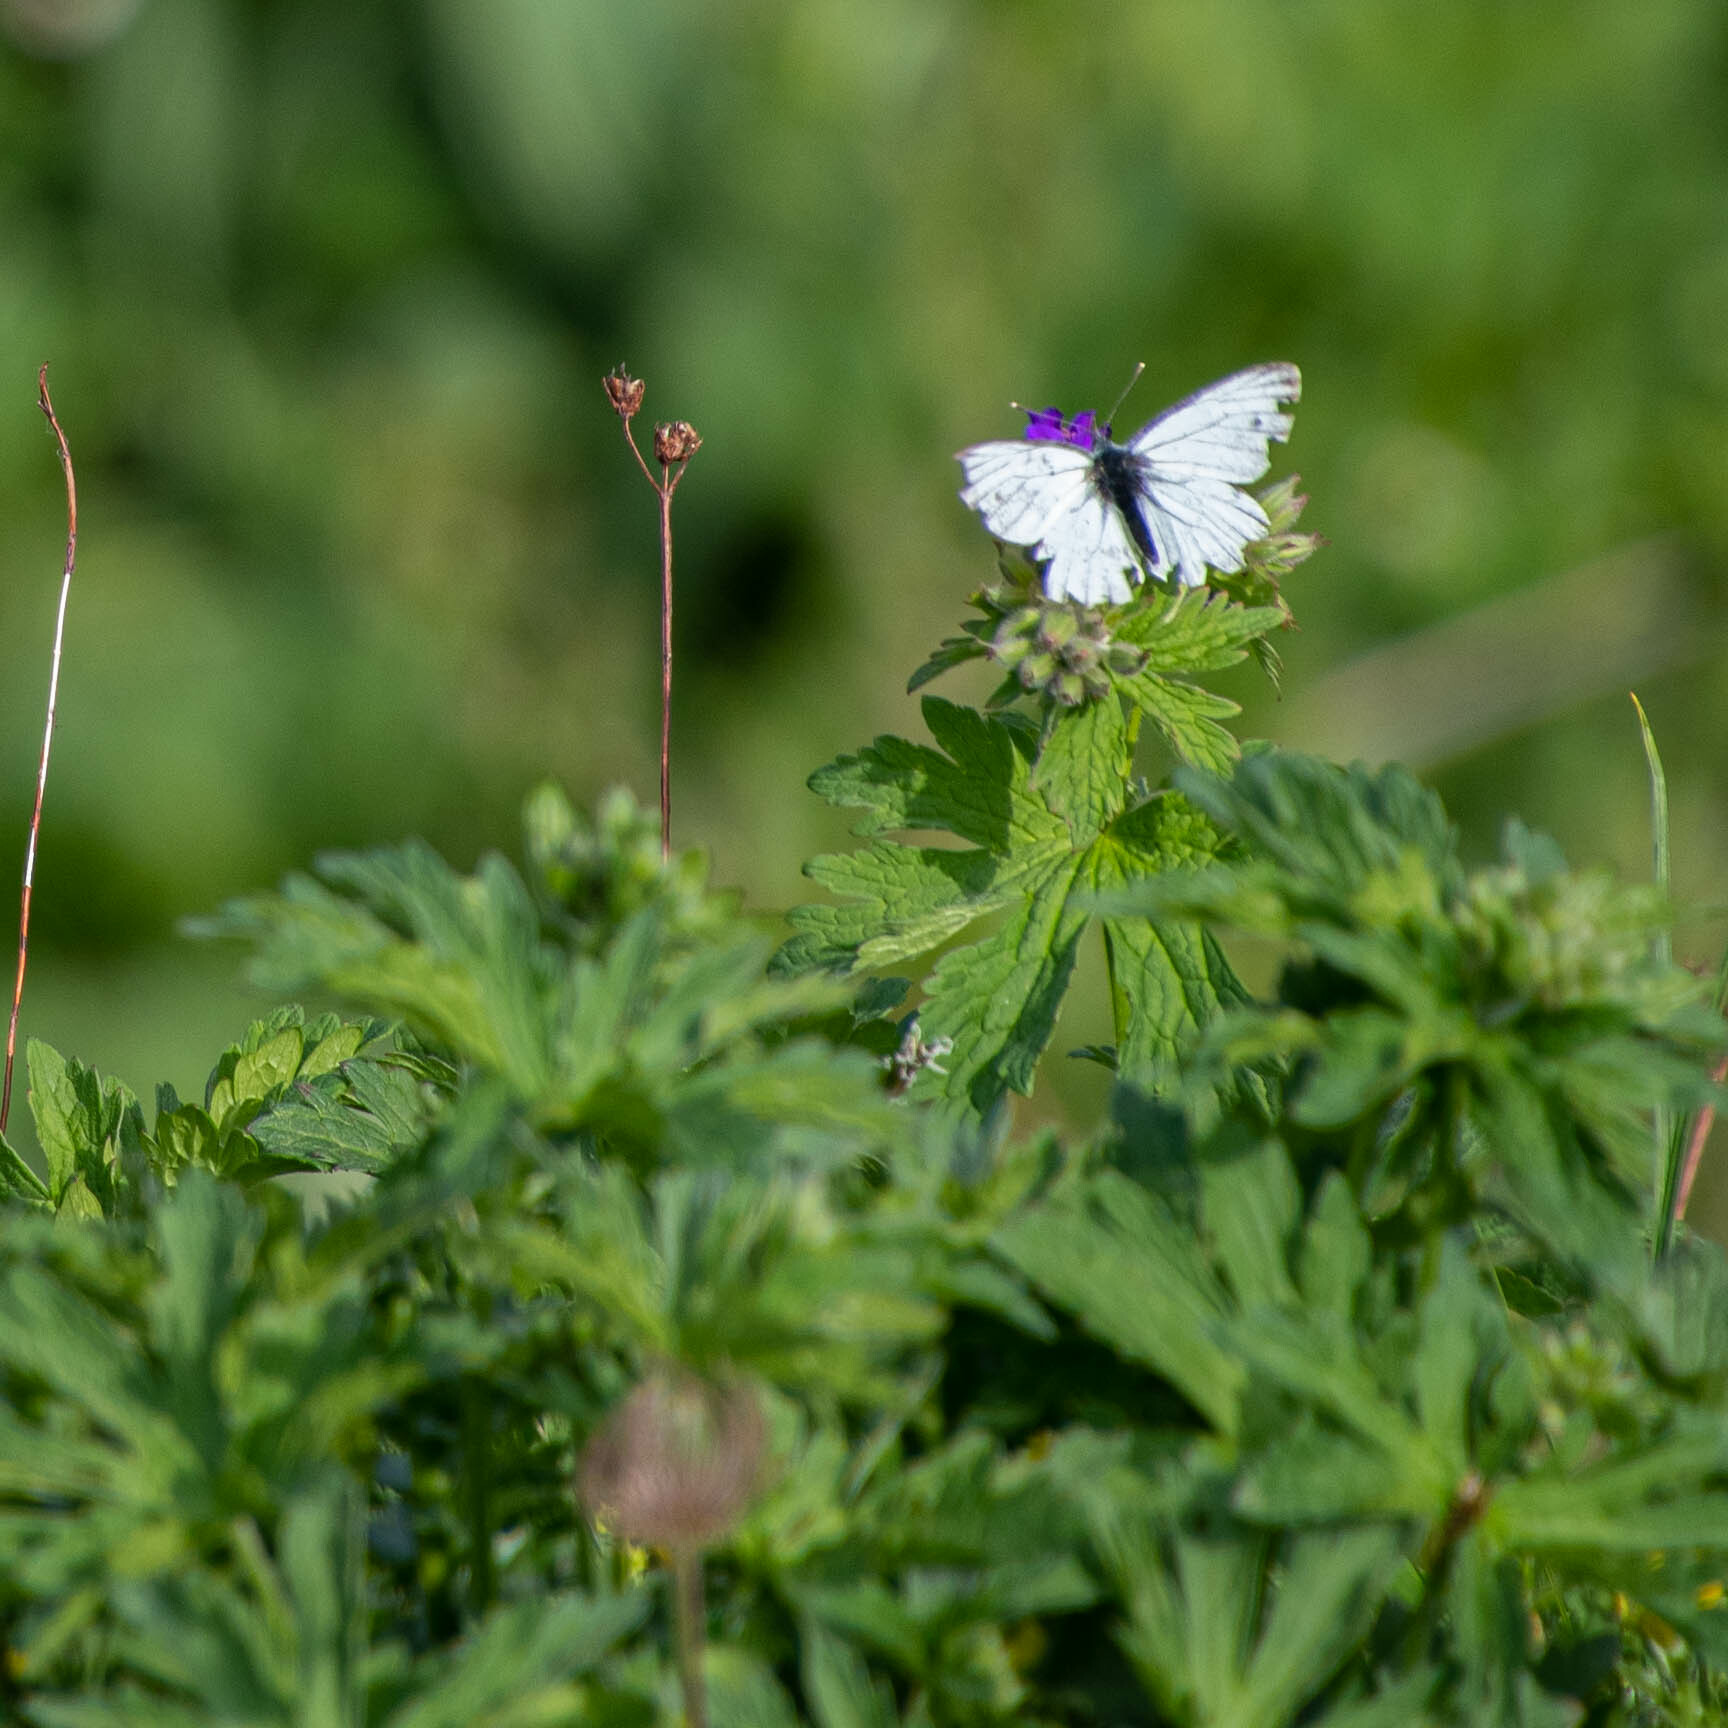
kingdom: Animalia
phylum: Arthropoda
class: Insecta
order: Lepidoptera
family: Pieridae
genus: Aporia
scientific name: Aporia crataegi
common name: Black-veined white
